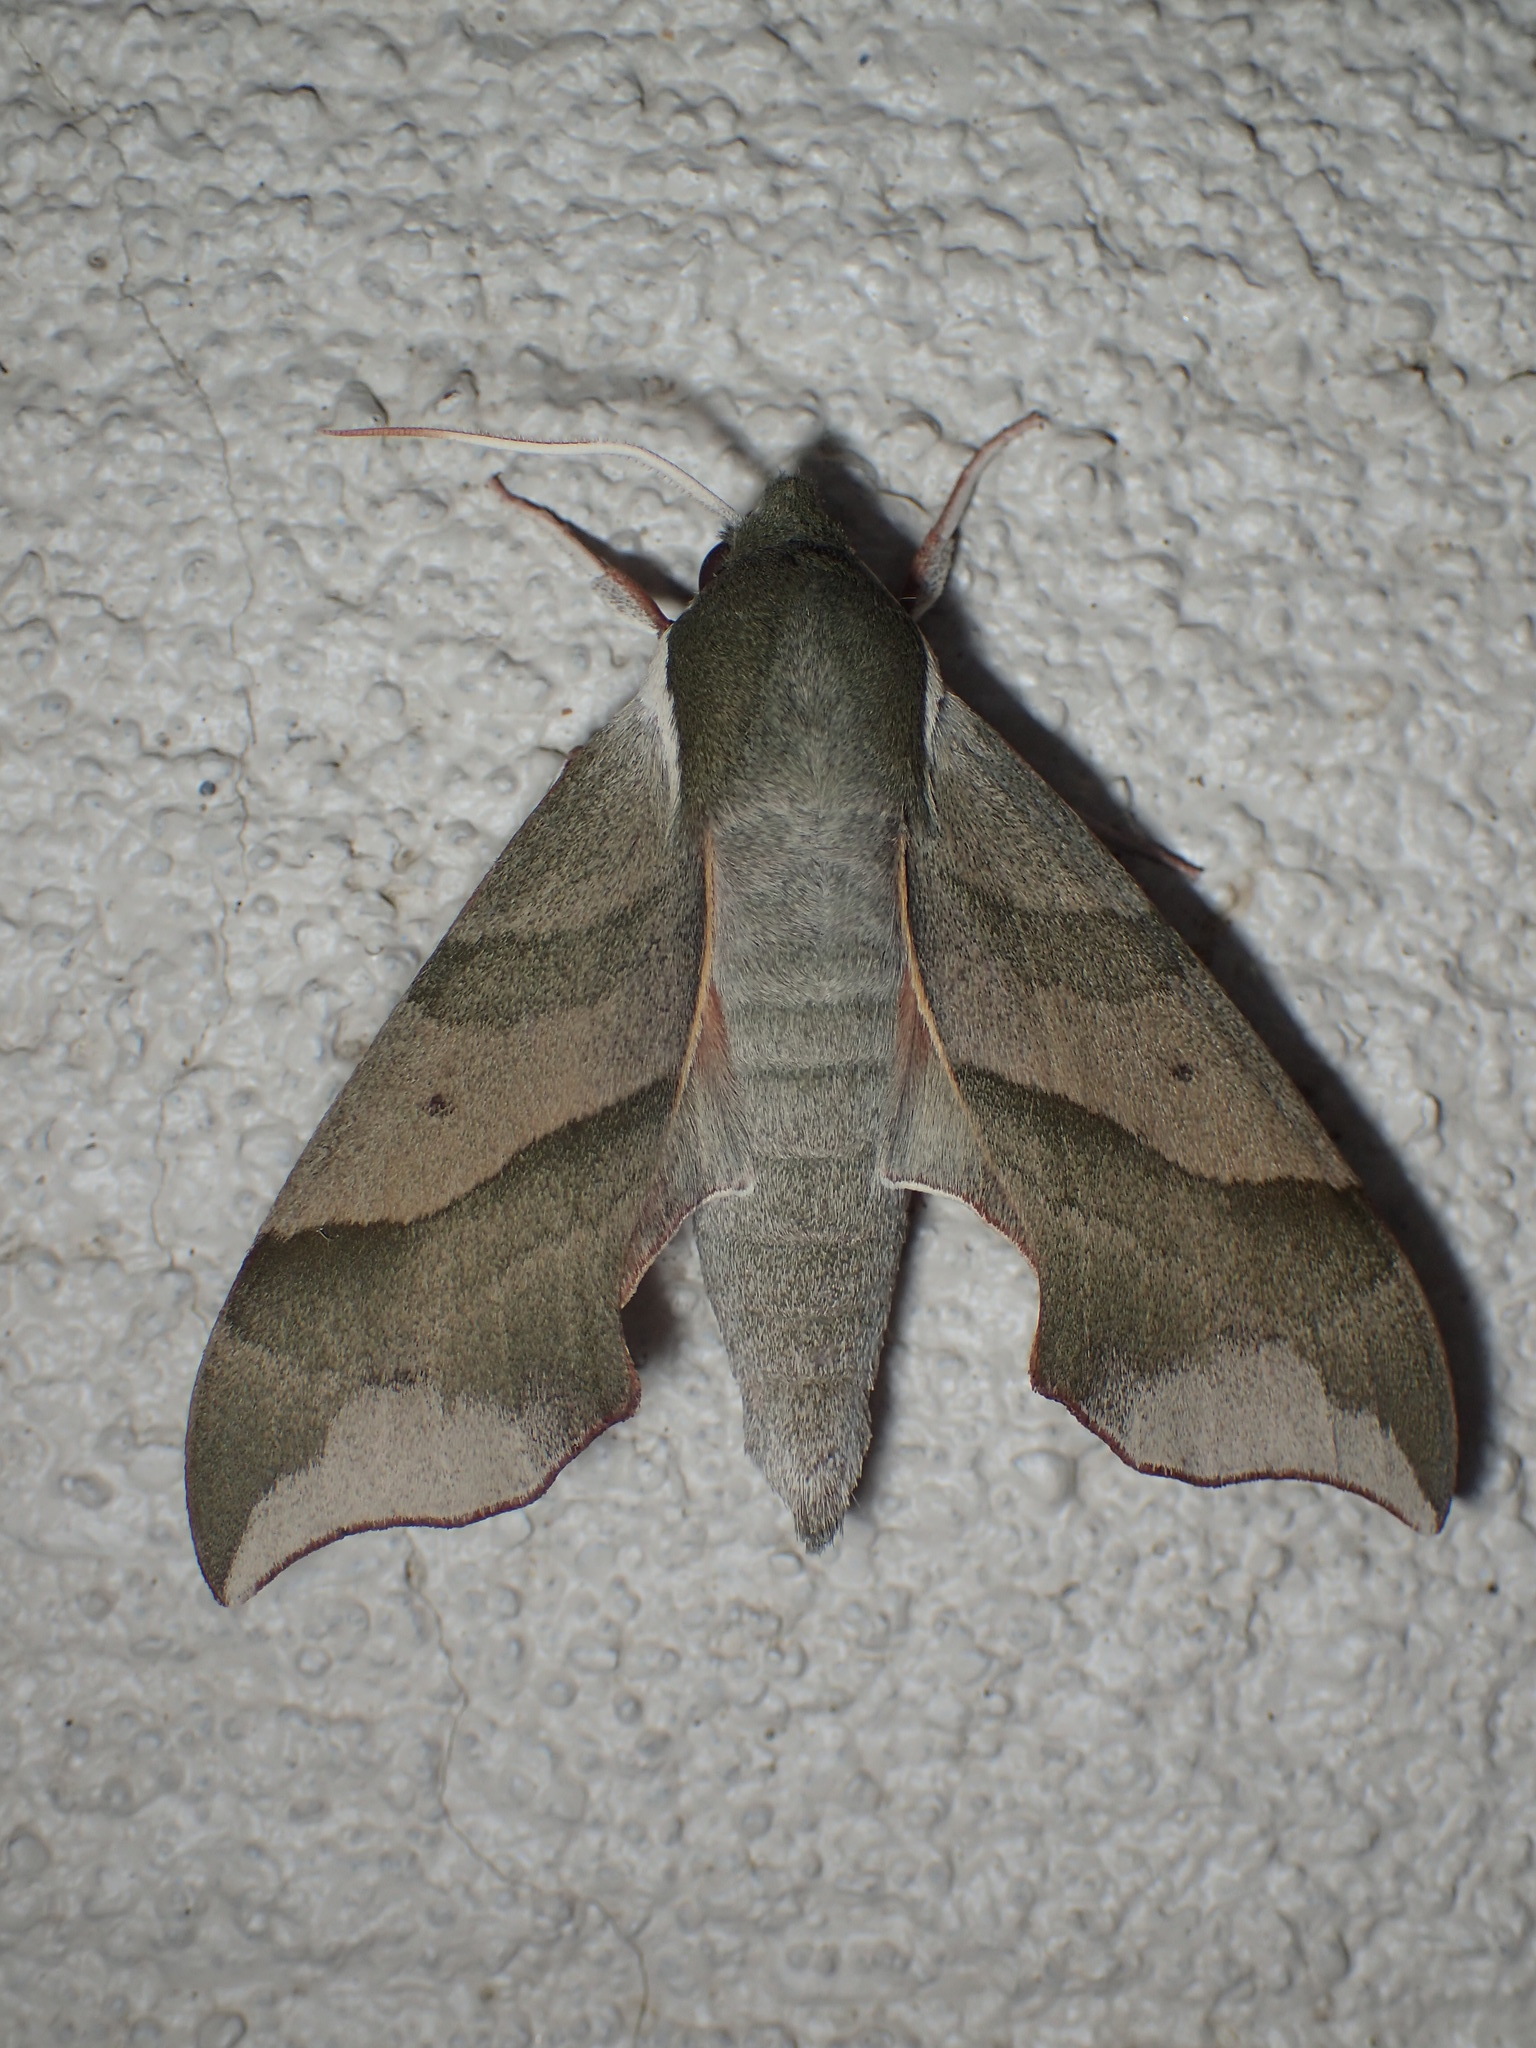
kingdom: Animalia
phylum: Arthropoda
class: Insecta
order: Lepidoptera
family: Sphingidae
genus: Darapsa
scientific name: Darapsa myron
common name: Hog sphinx
